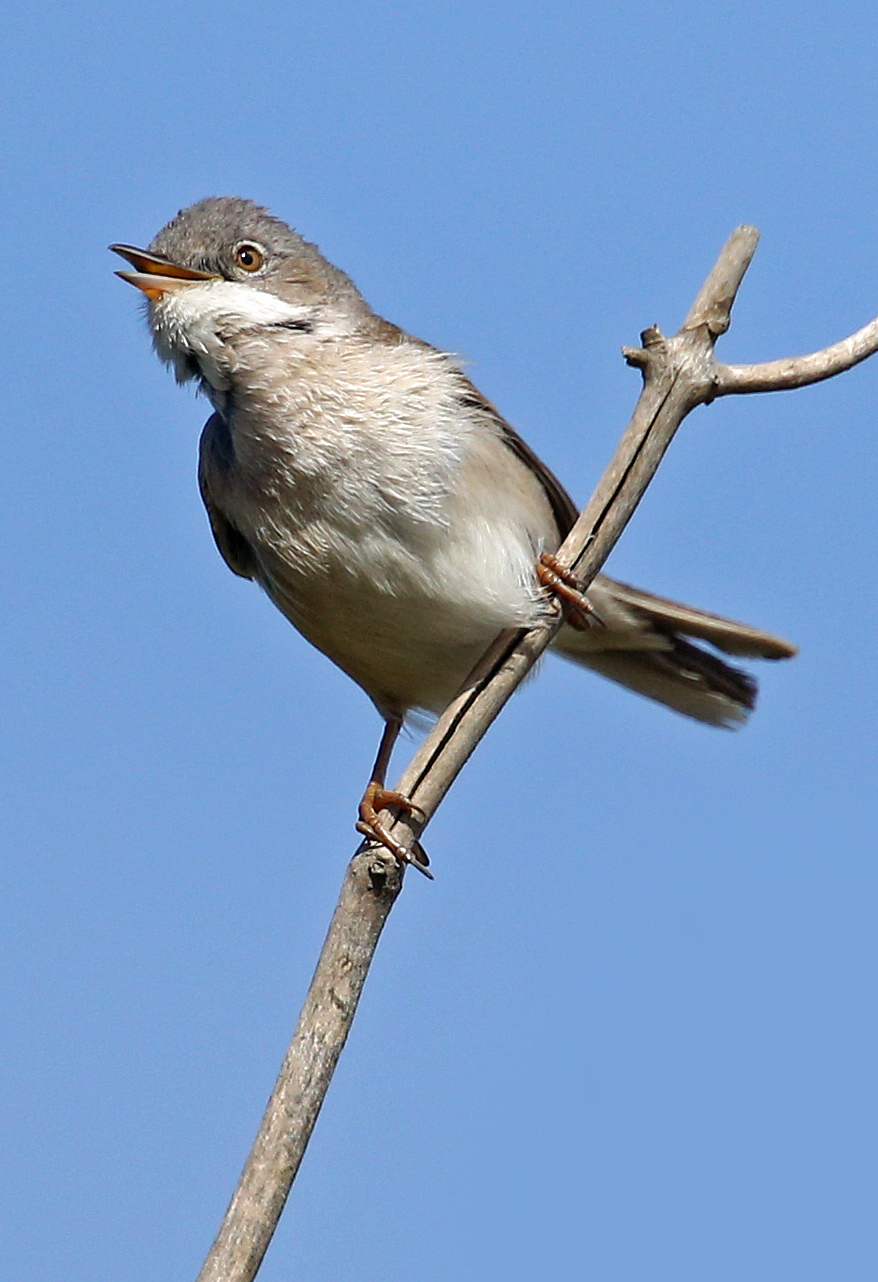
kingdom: Animalia
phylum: Chordata
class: Aves
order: Passeriformes
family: Sylviidae
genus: Sylvia
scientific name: Sylvia communis
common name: Common whitethroat
